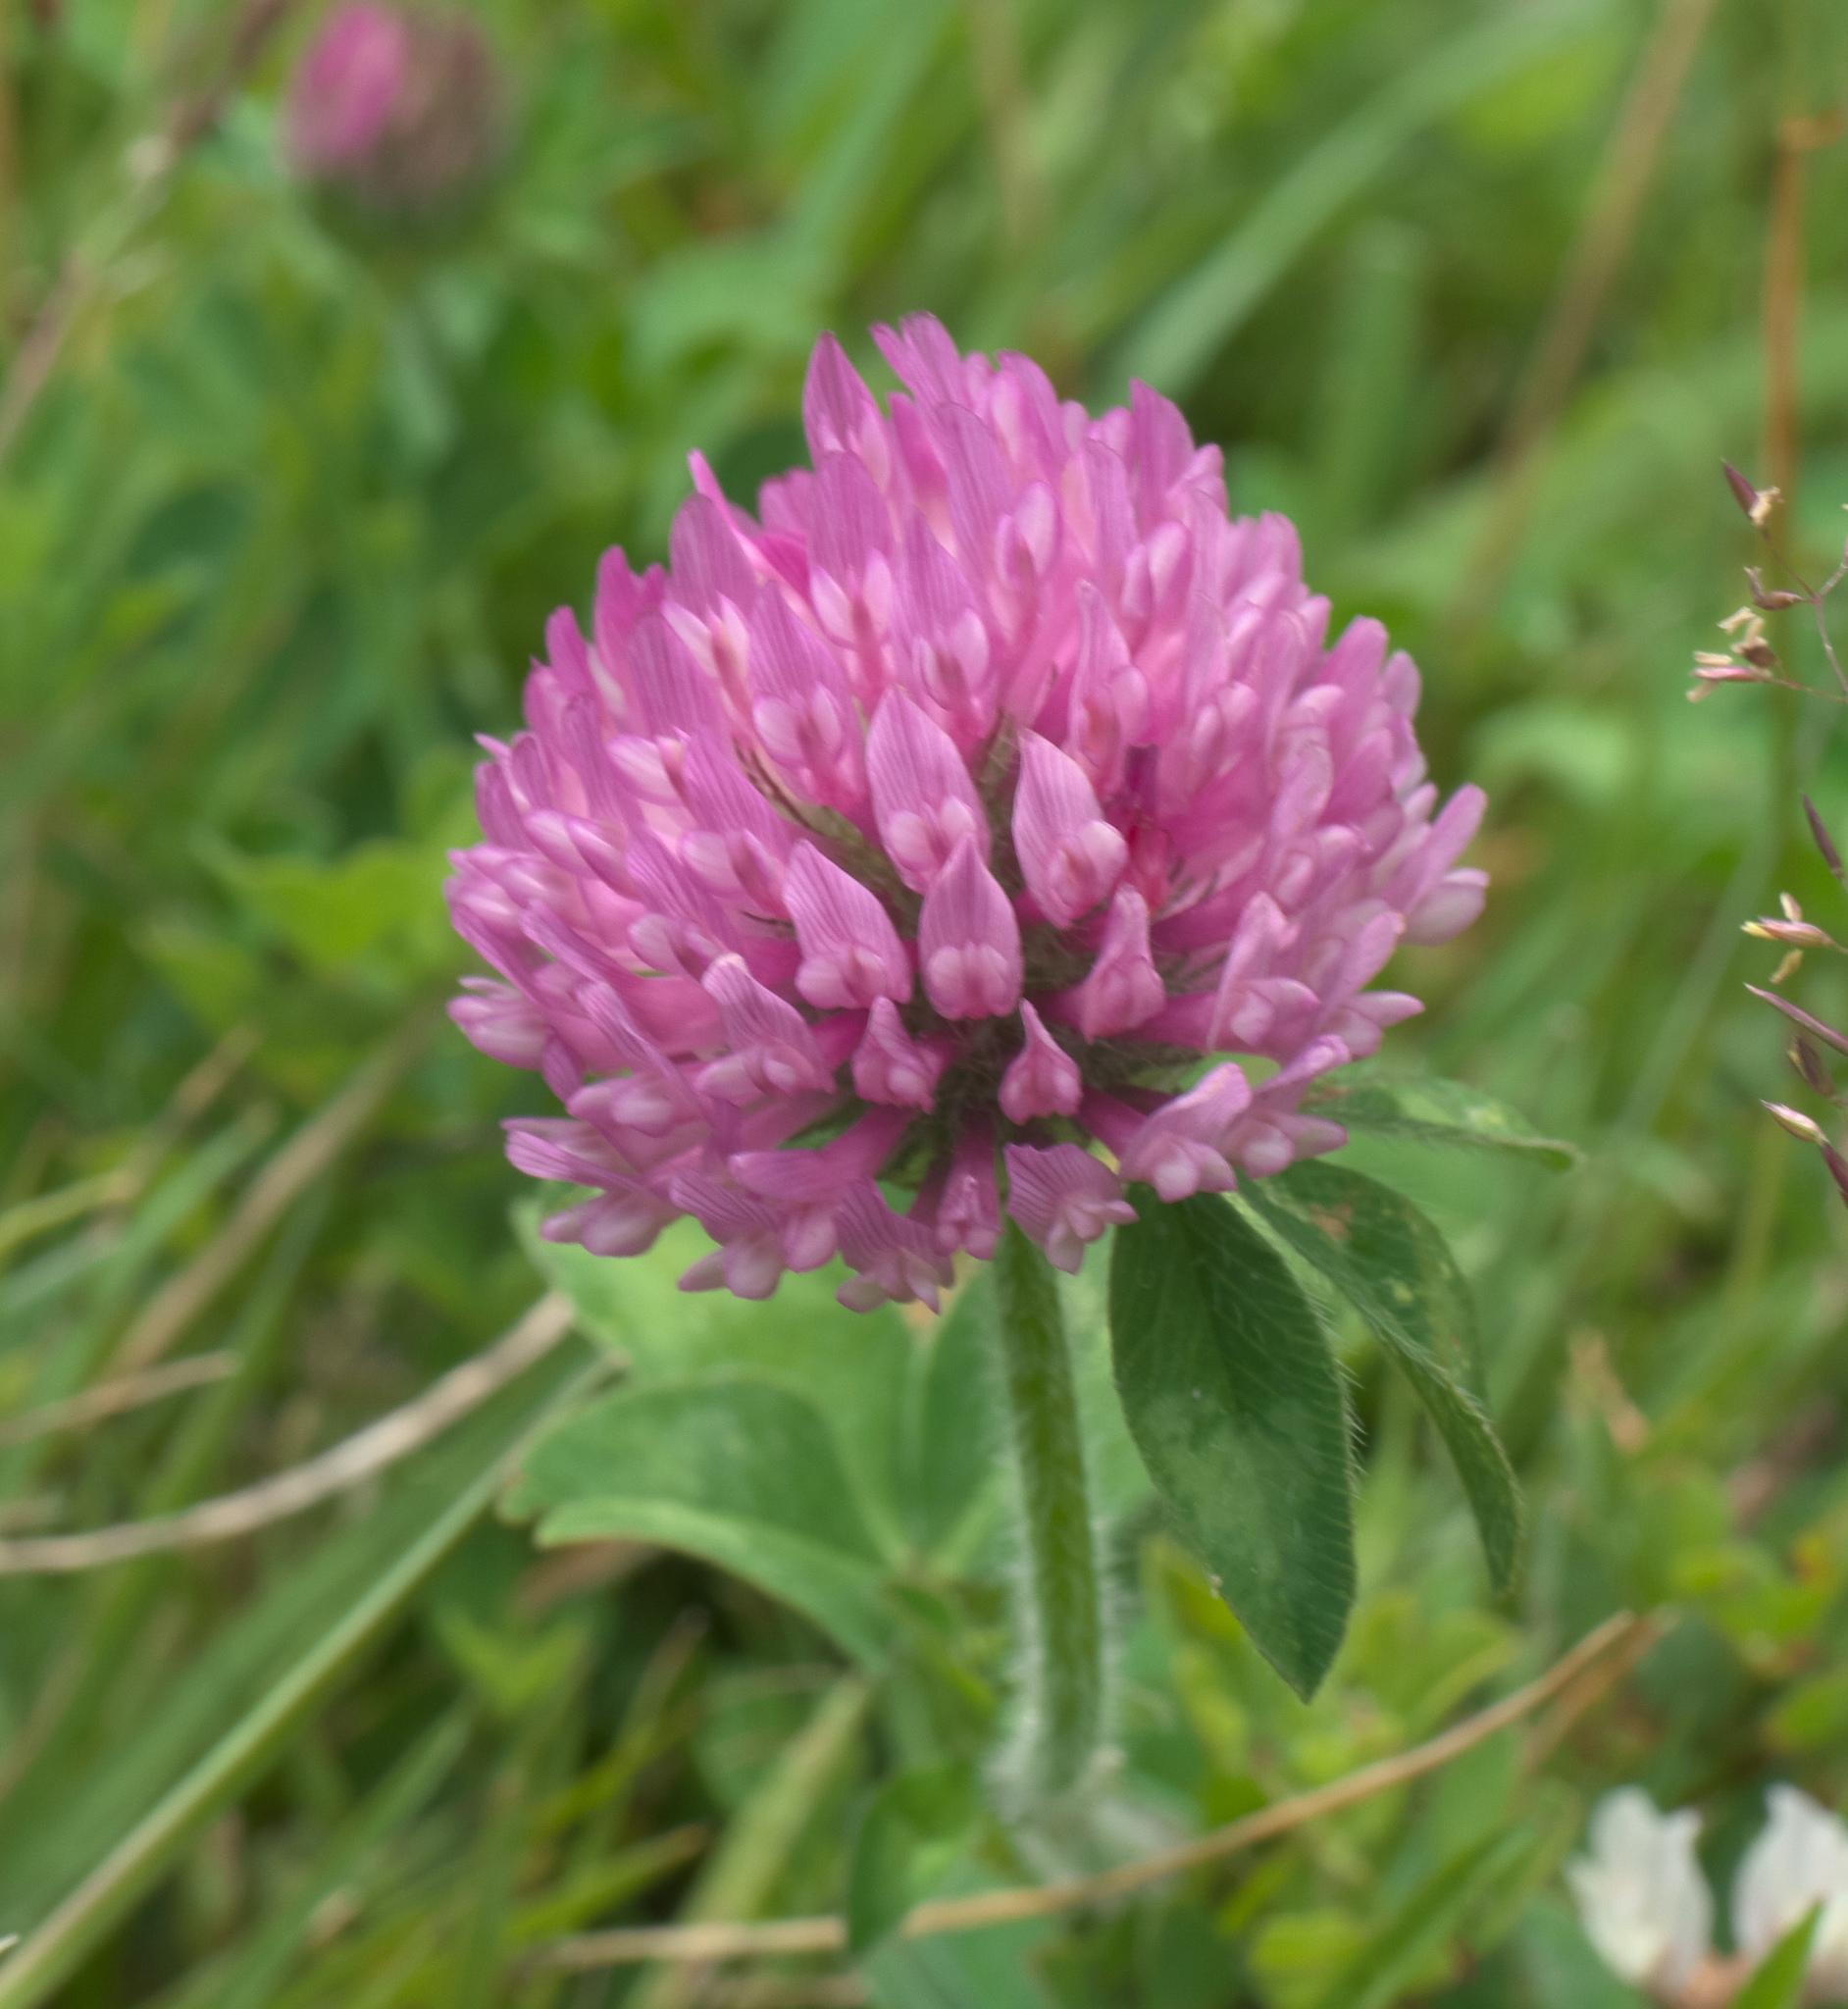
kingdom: Plantae
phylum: Tracheophyta
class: Magnoliopsida
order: Fabales
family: Fabaceae
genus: Trifolium
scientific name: Trifolium pratense
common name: Red clover
